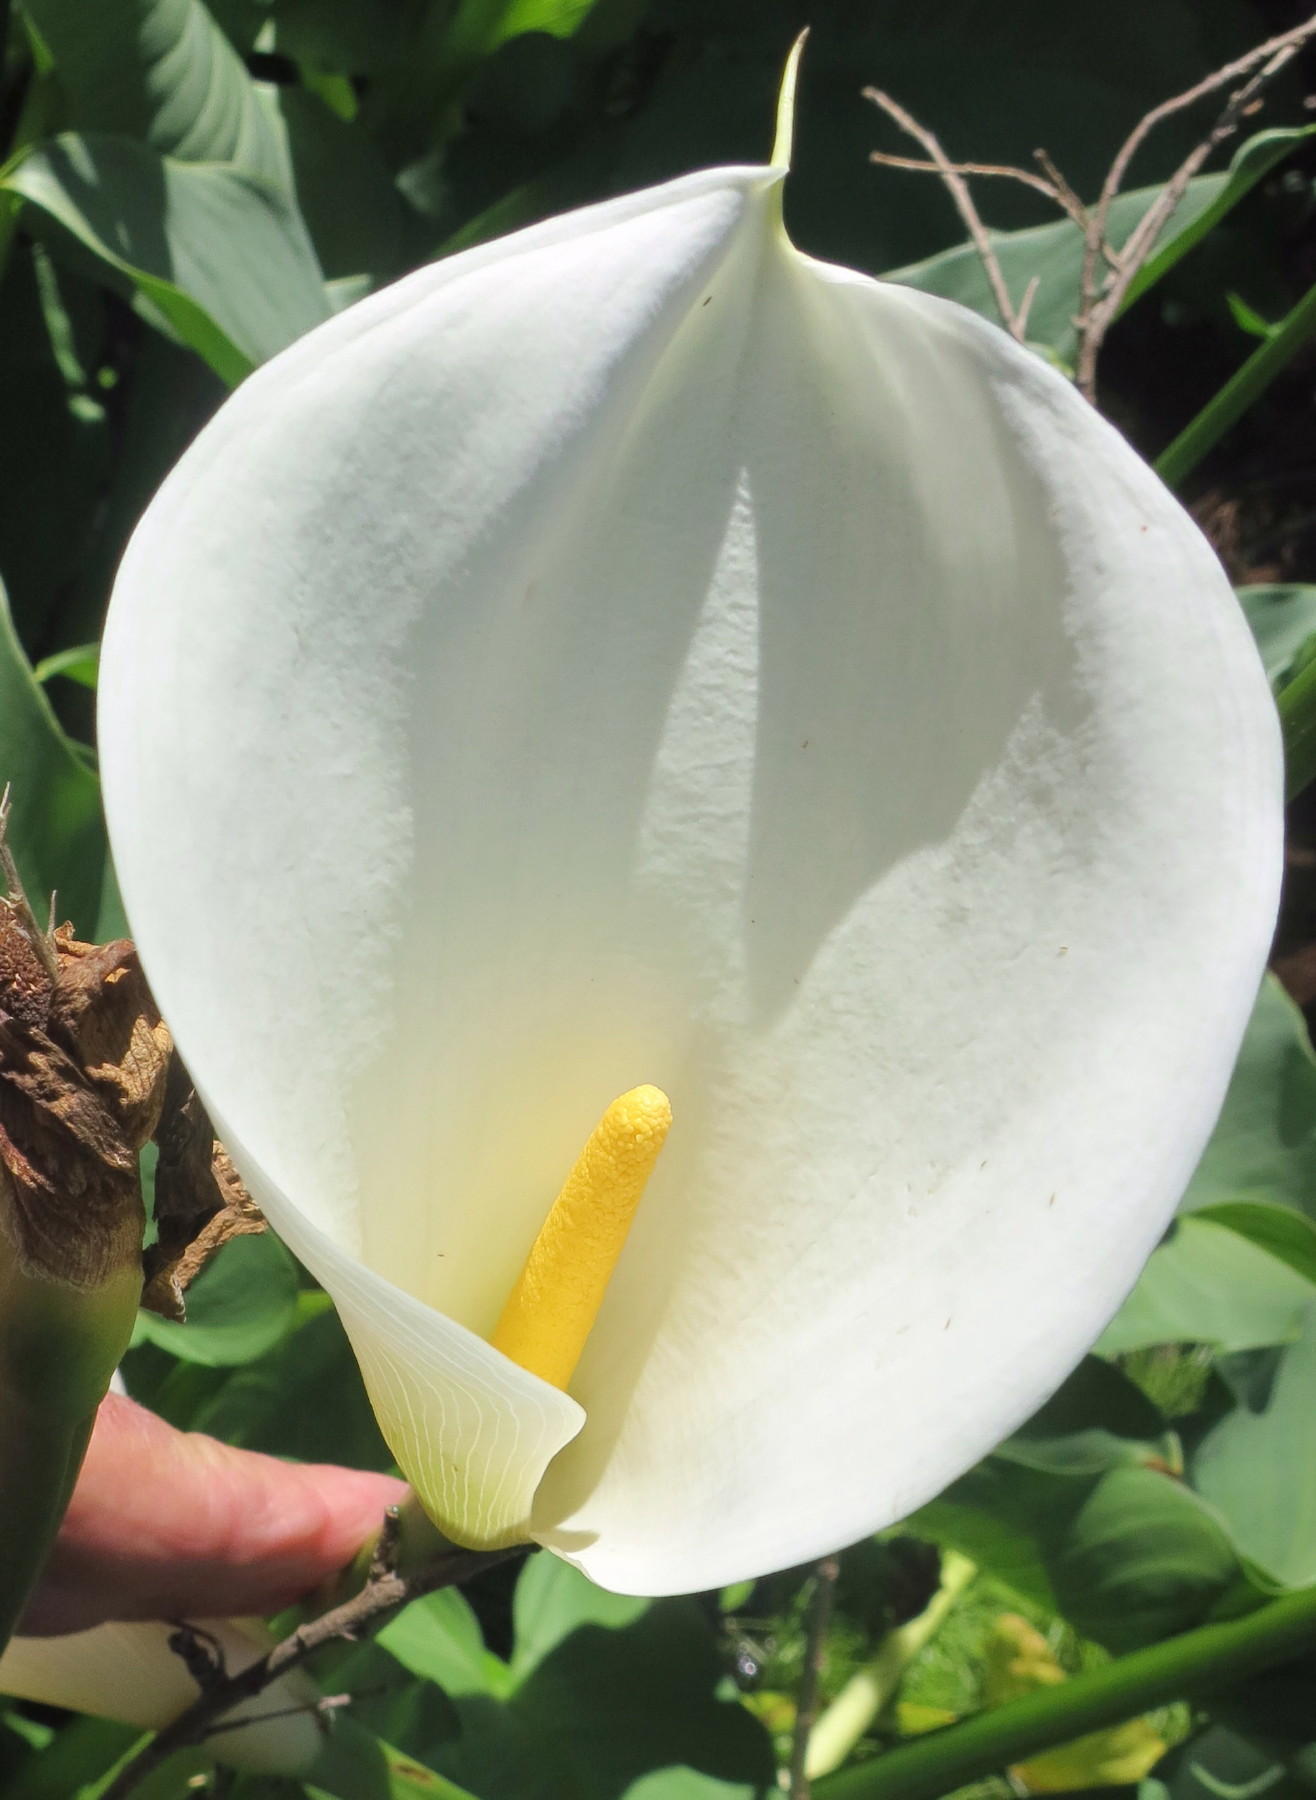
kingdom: Plantae
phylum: Tracheophyta
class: Liliopsida
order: Alismatales
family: Araceae
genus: Zantedeschia
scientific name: Zantedeschia aethiopica
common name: Altar-lily
